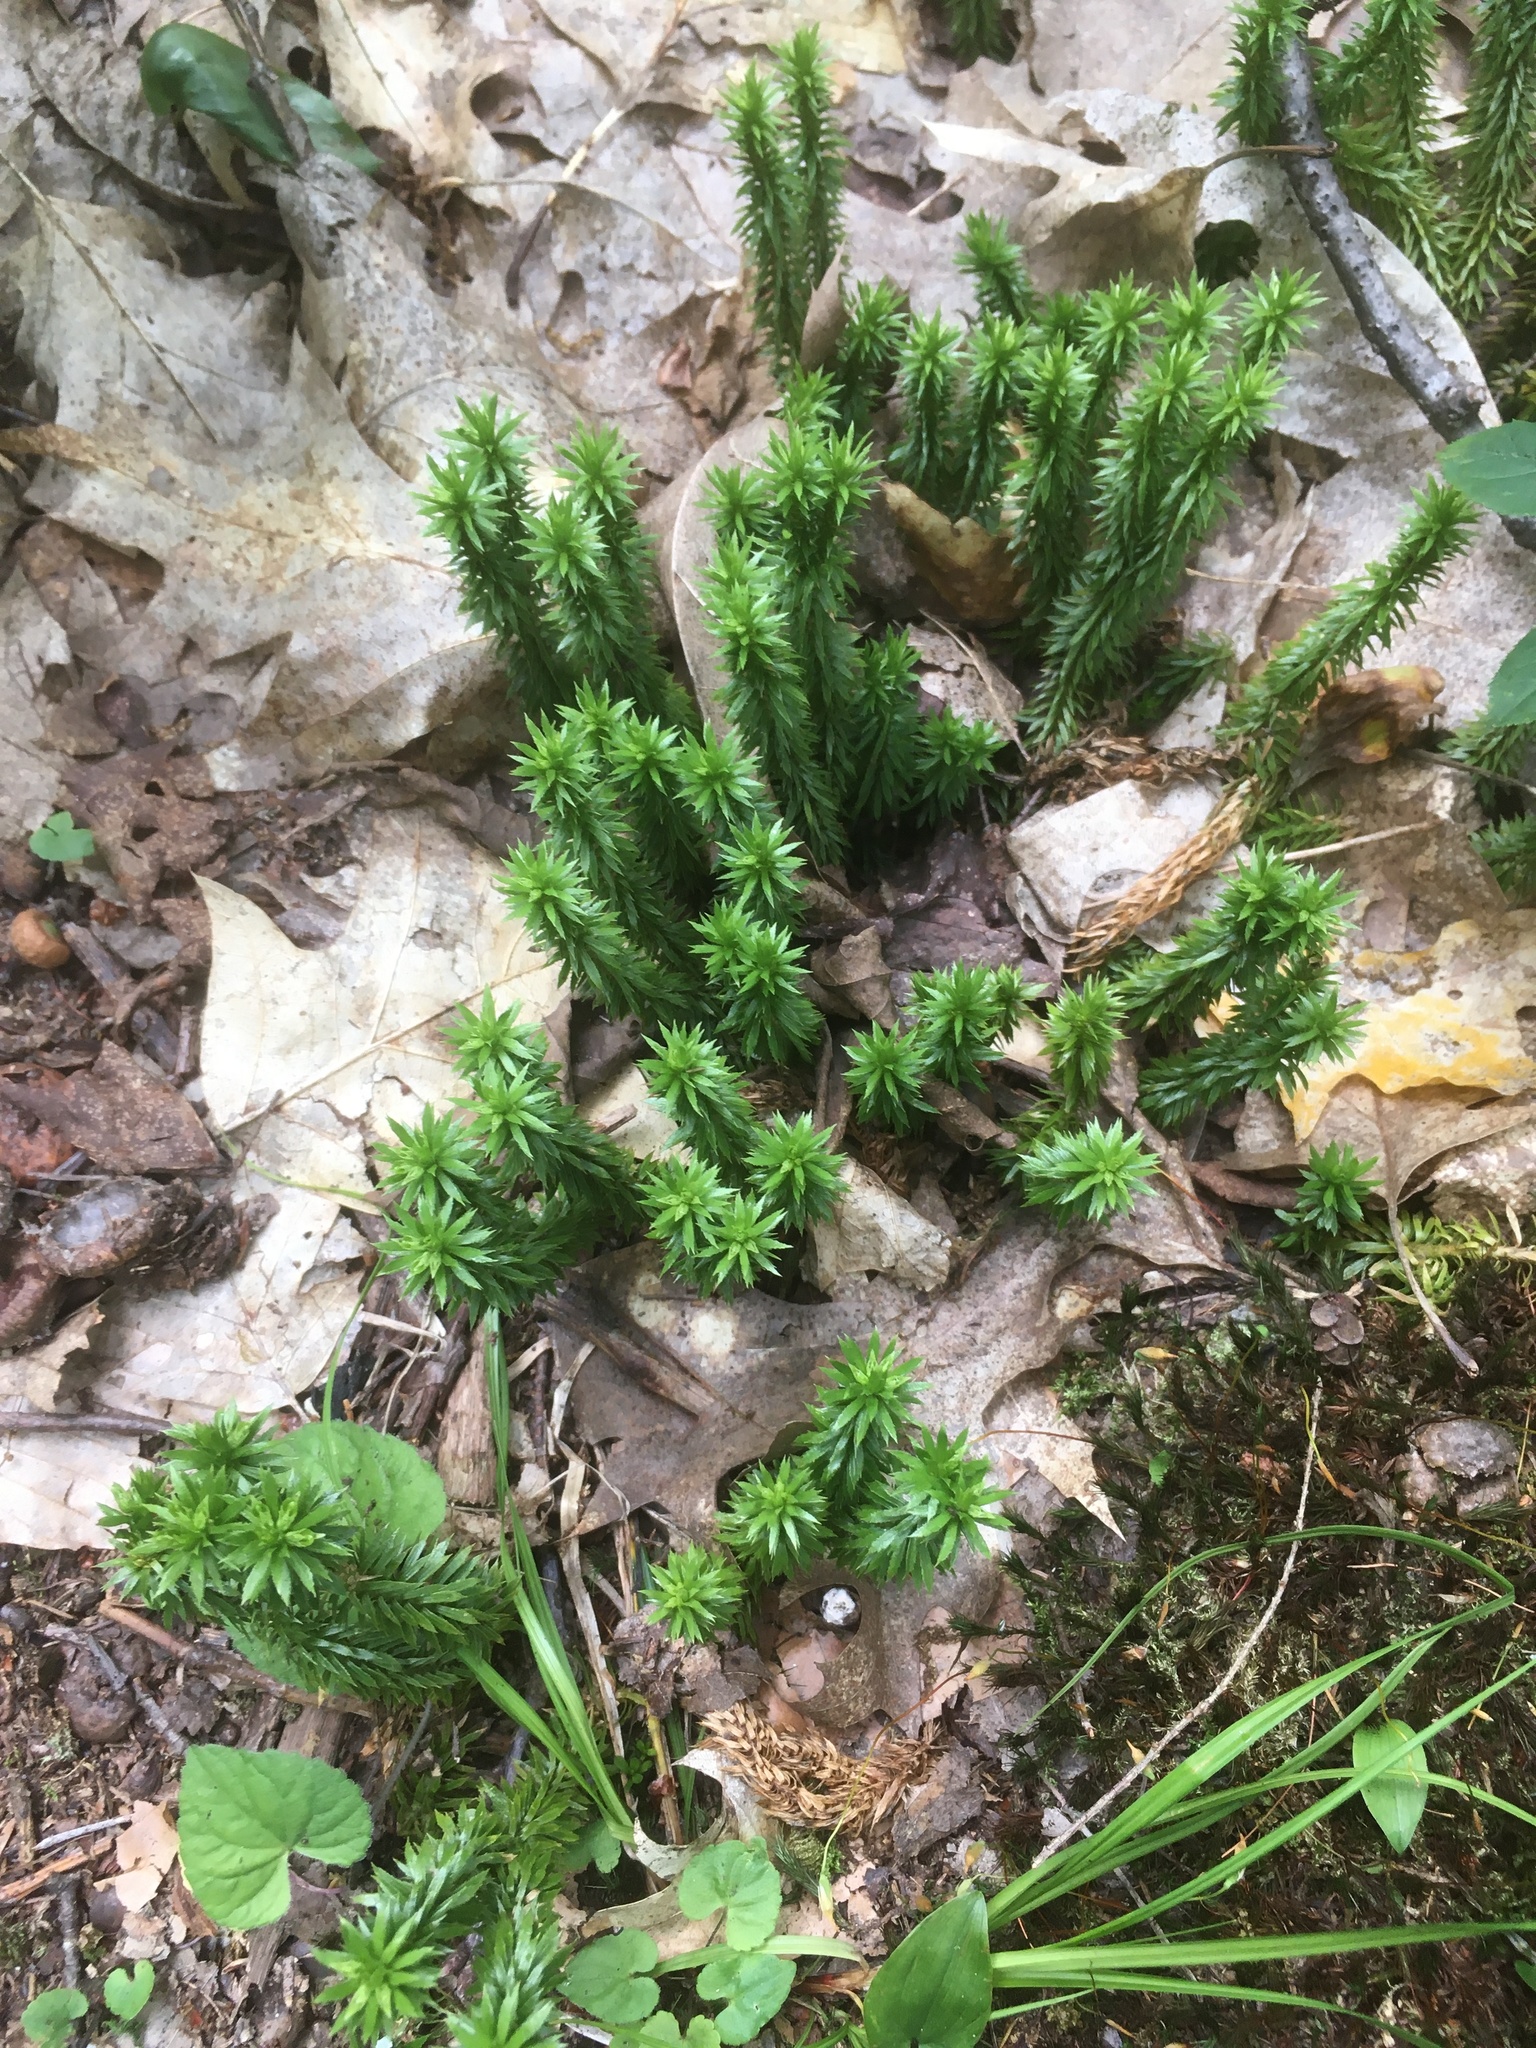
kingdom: Plantae
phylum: Tracheophyta
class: Lycopodiopsida
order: Lycopodiales
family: Lycopodiaceae
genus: Huperzia
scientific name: Huperzia lucidula
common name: Shining clubmoss
